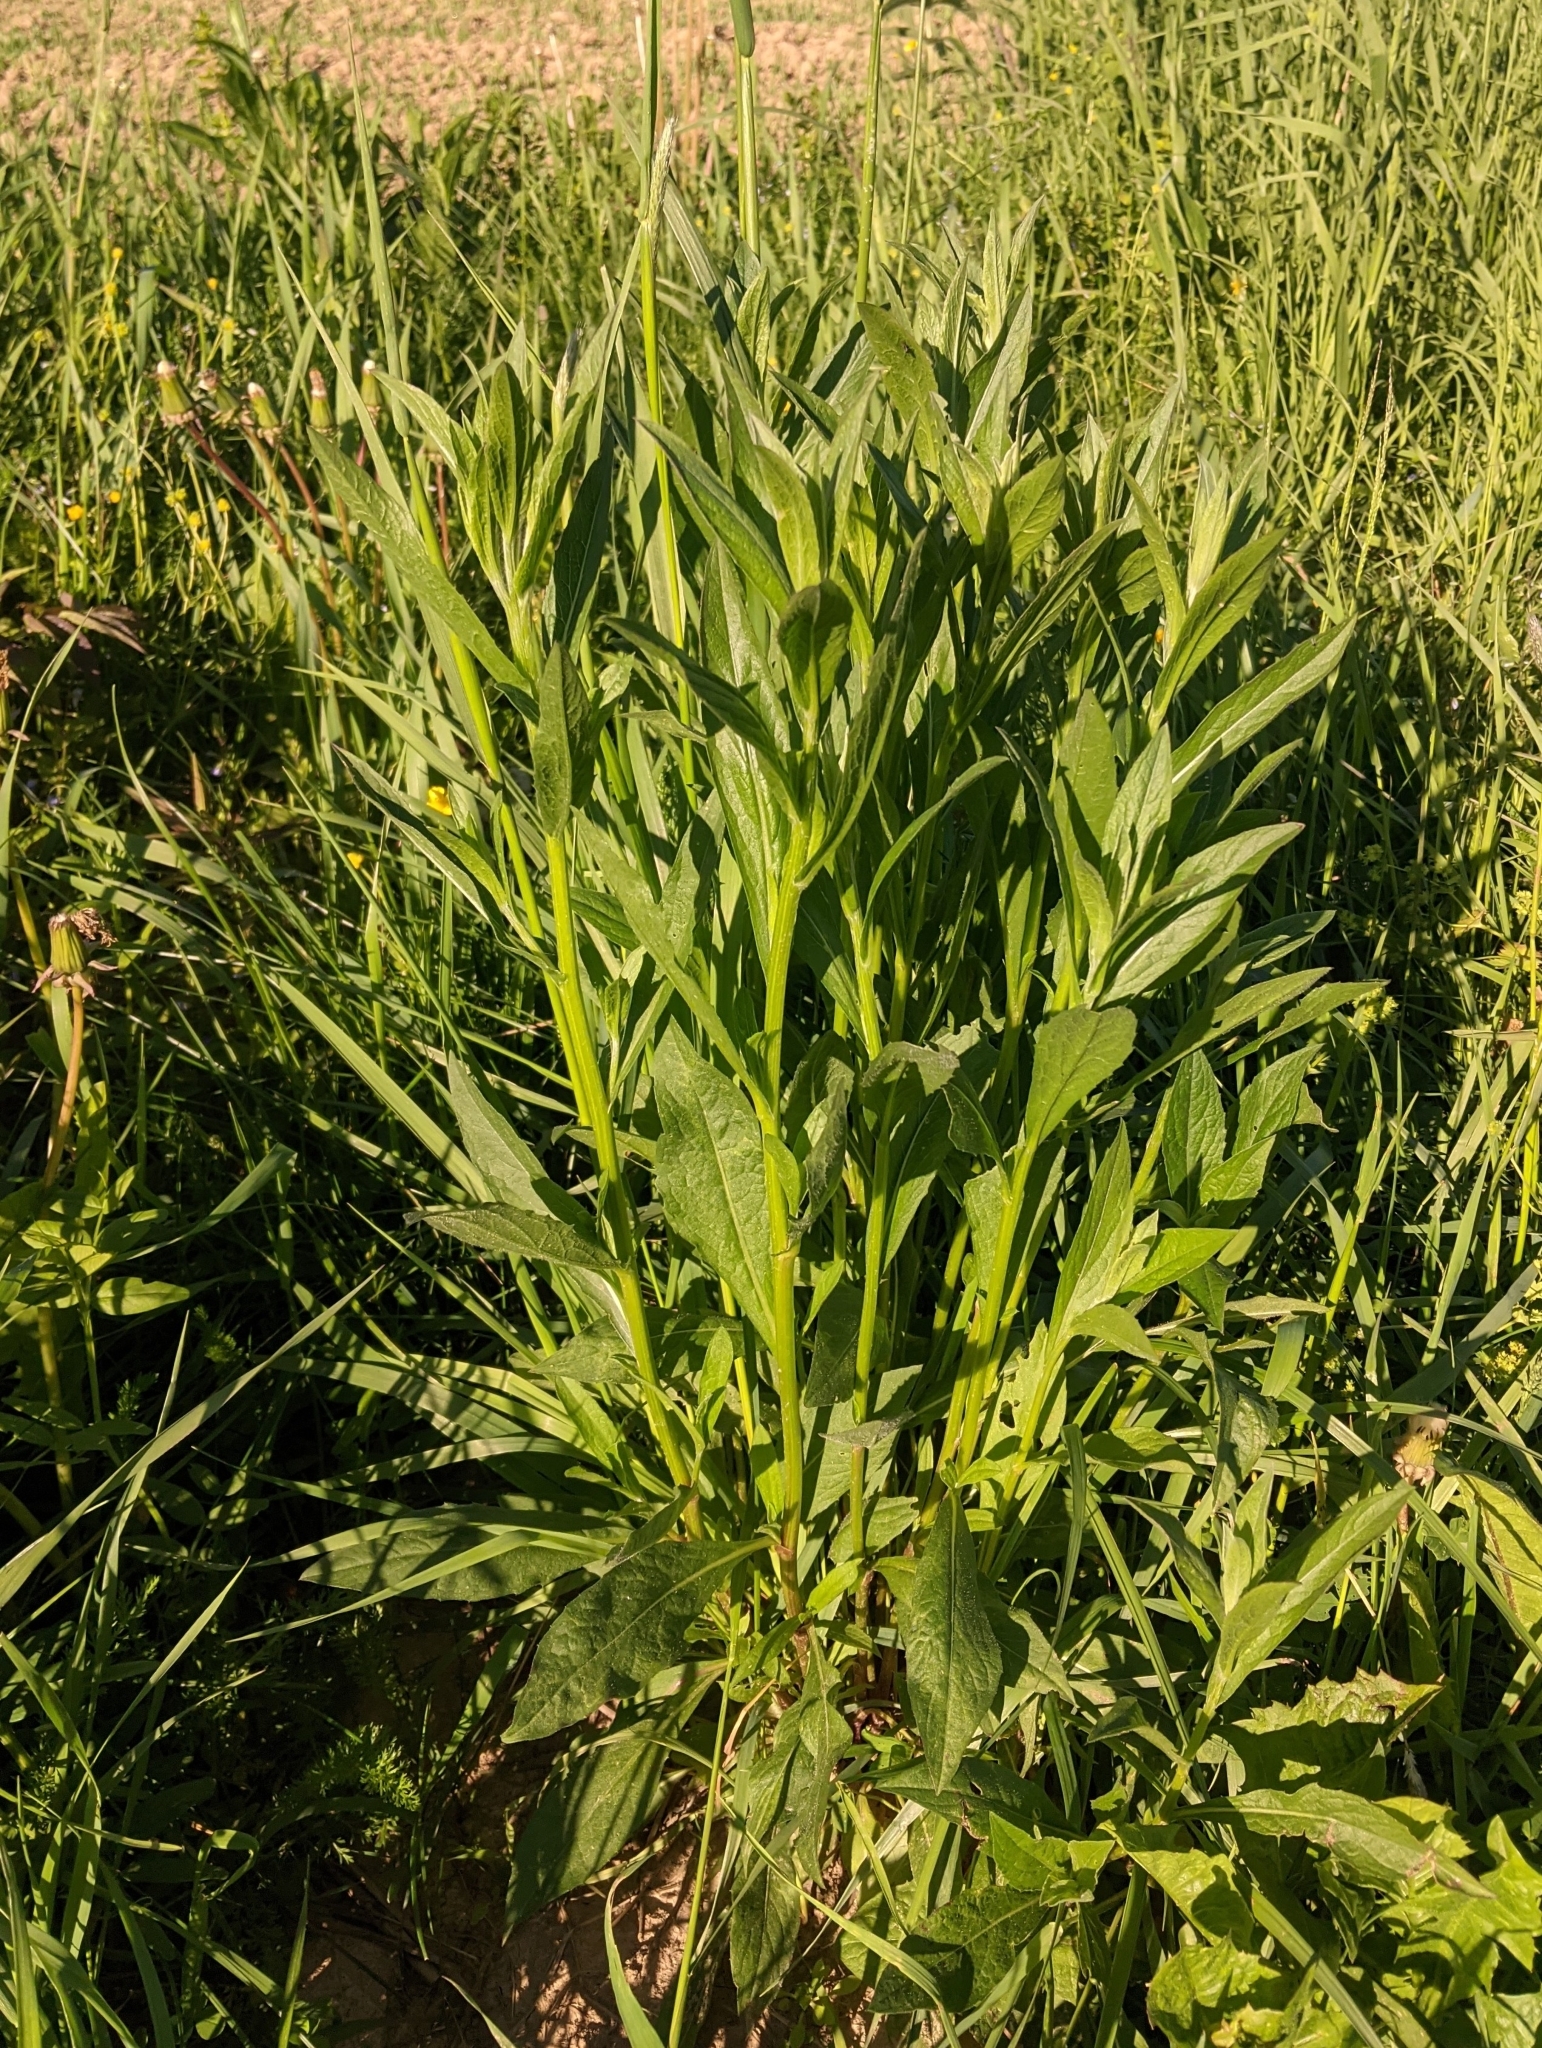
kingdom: Plantae
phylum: Tracheophyta
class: Magnoliopsida
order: Asterales
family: Asteraceae
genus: Centaurea
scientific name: Centaurea jacea
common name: Brown knapweed
